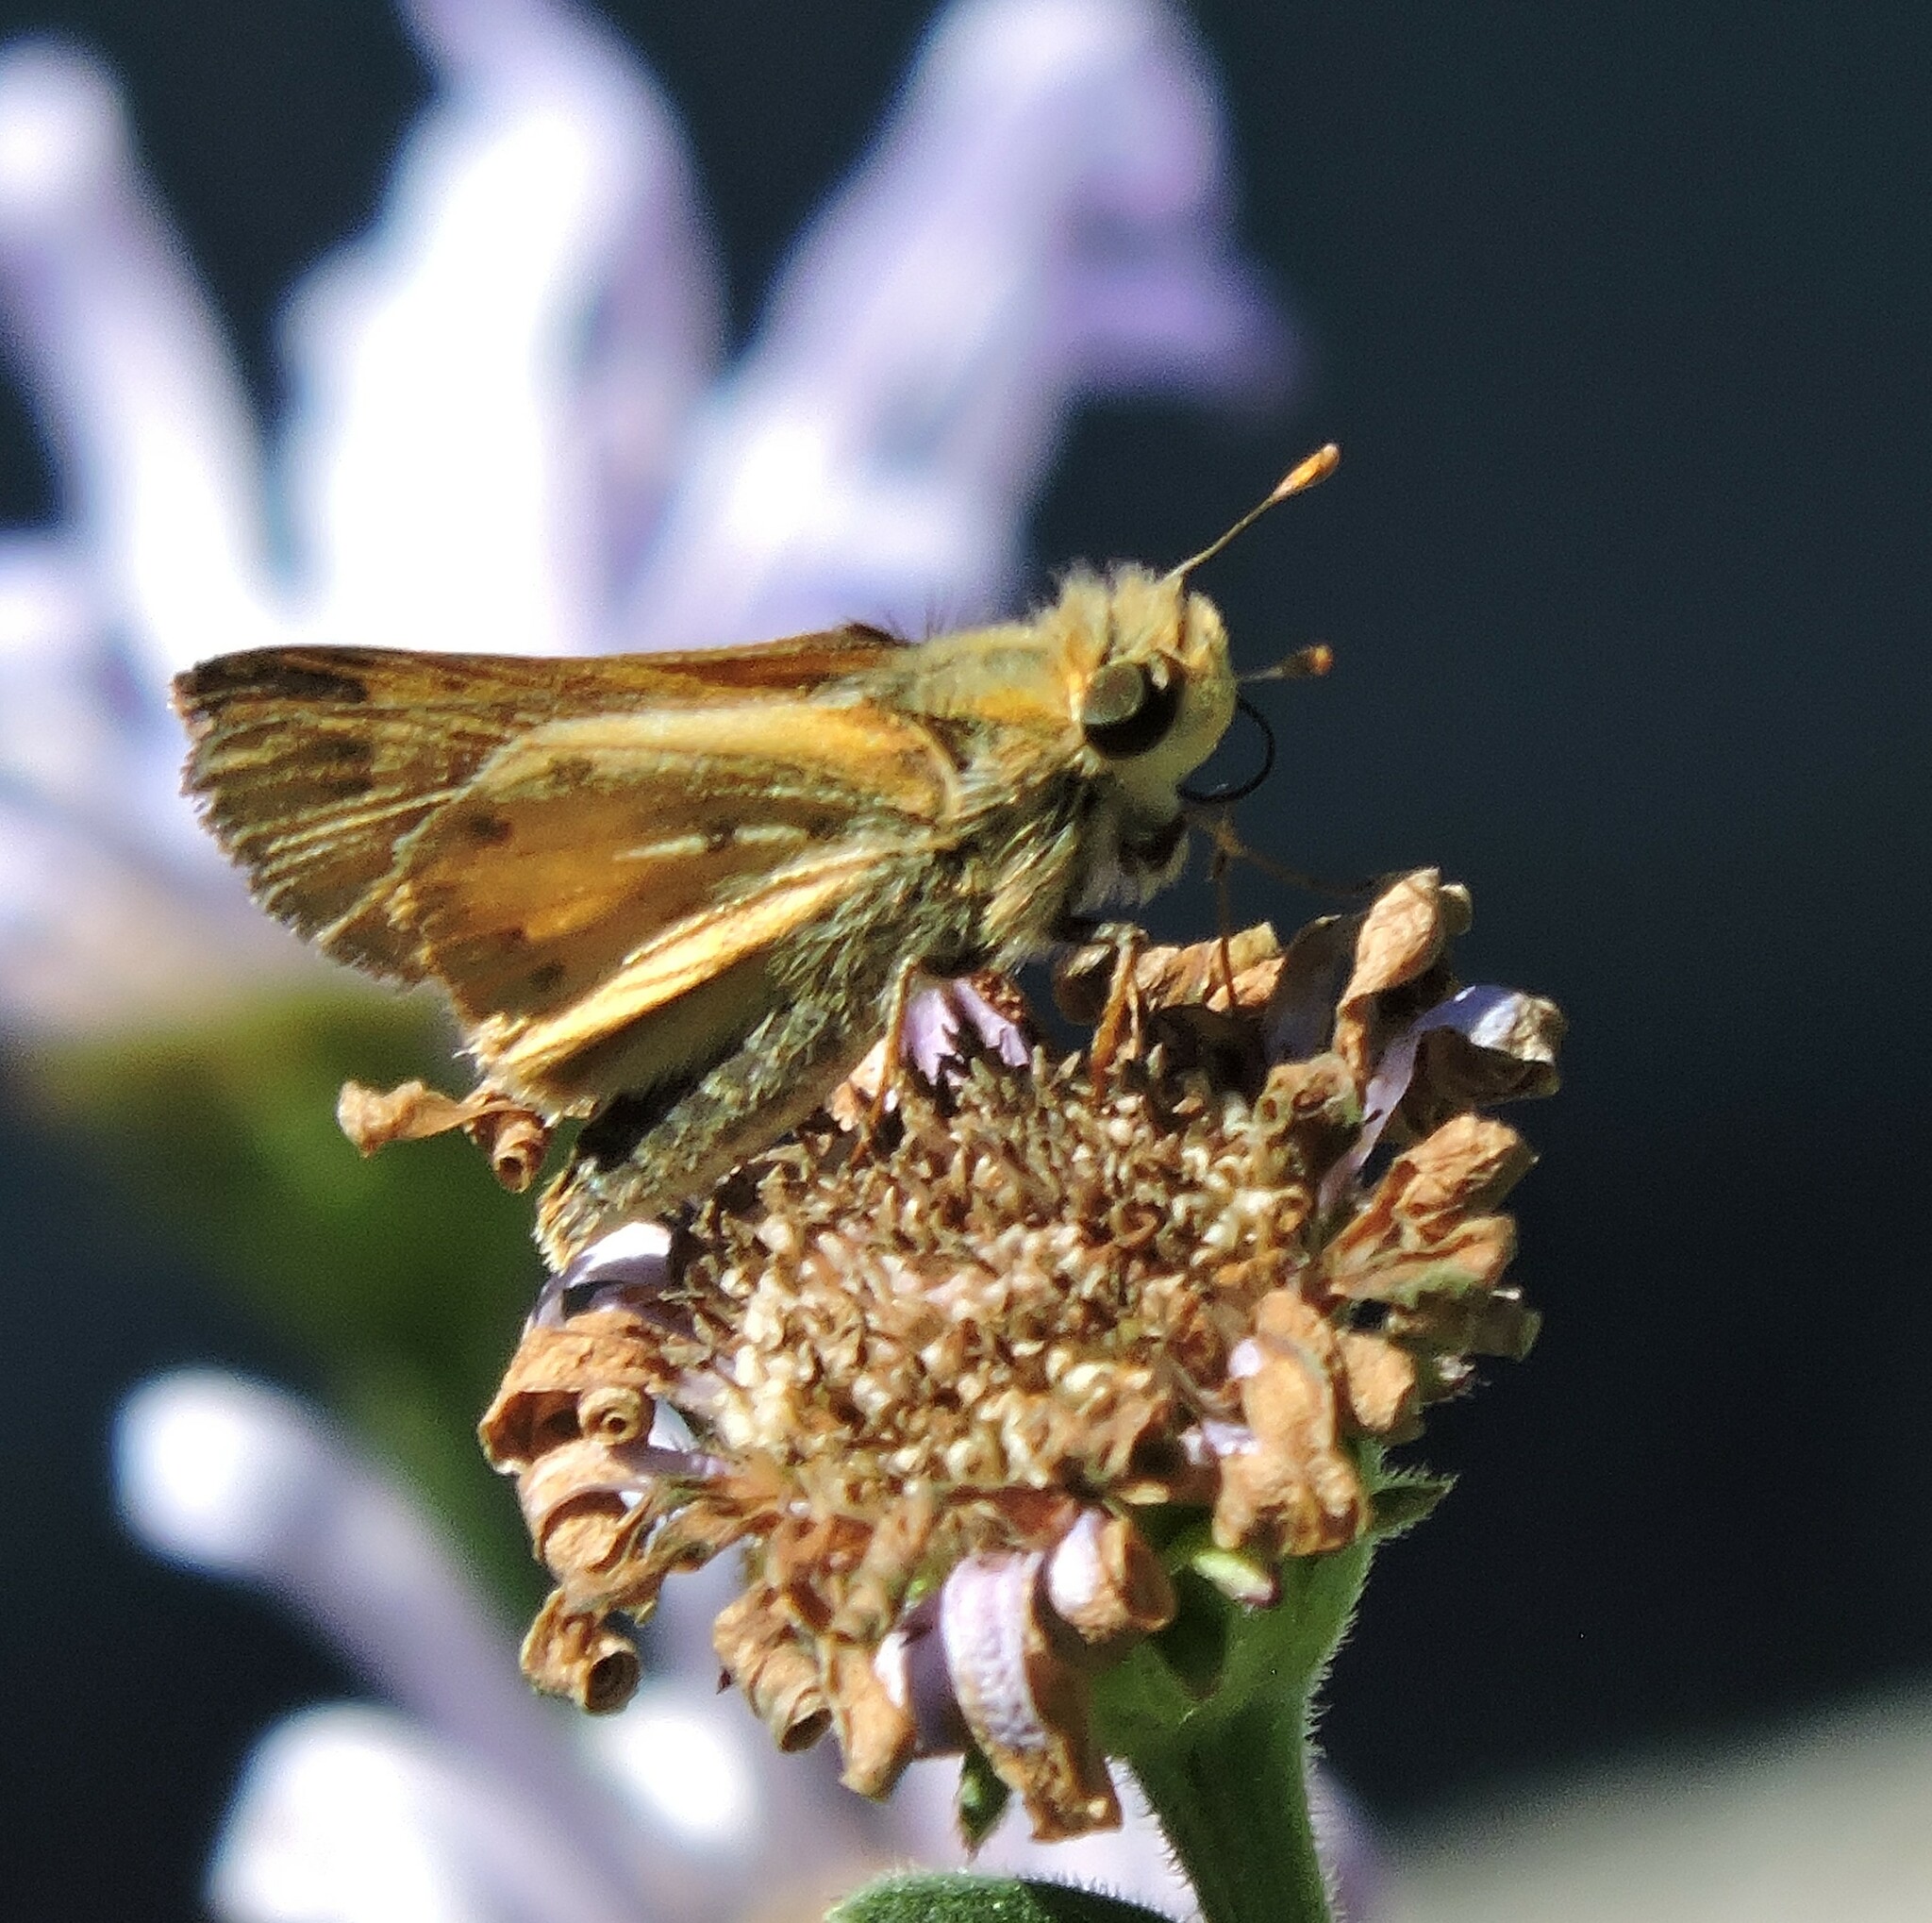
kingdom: Animalia
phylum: Arthropoda
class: Insecta
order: Lepidoptera
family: Hesperiidae
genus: Hylephila
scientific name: Hylephila phyleus
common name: Fiery skipper
